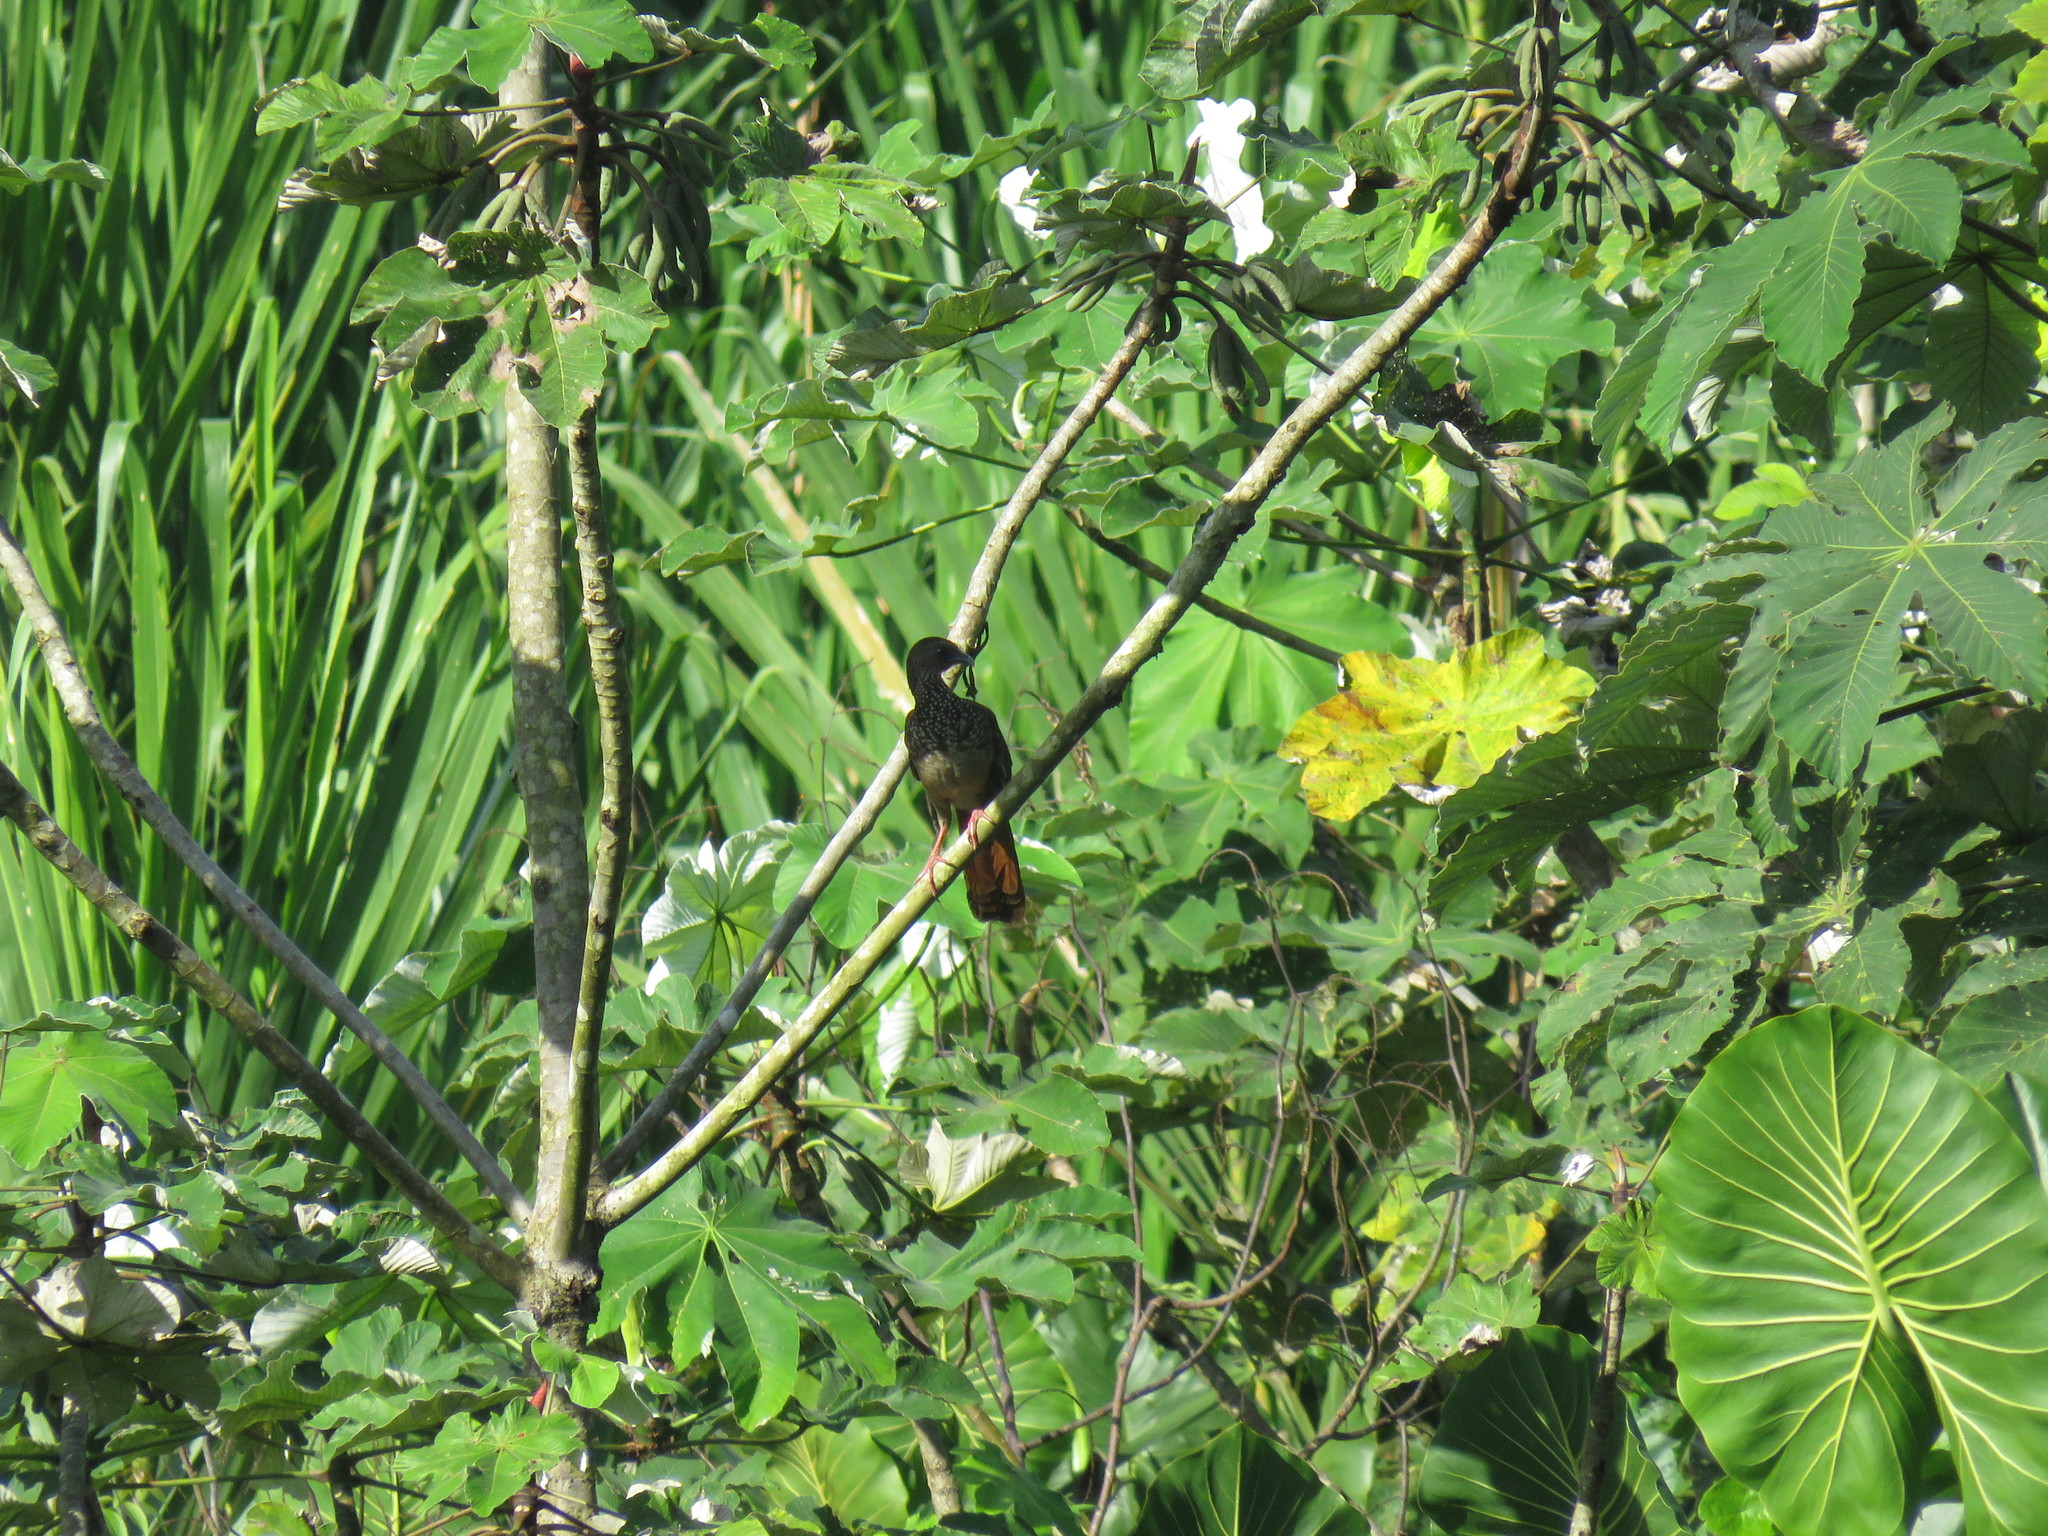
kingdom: Animalia
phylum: Chordata
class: Aves
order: Galliformes
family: Cracidae
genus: Ortalis
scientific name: Ortalis guttata
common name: Speckled chachalaca
